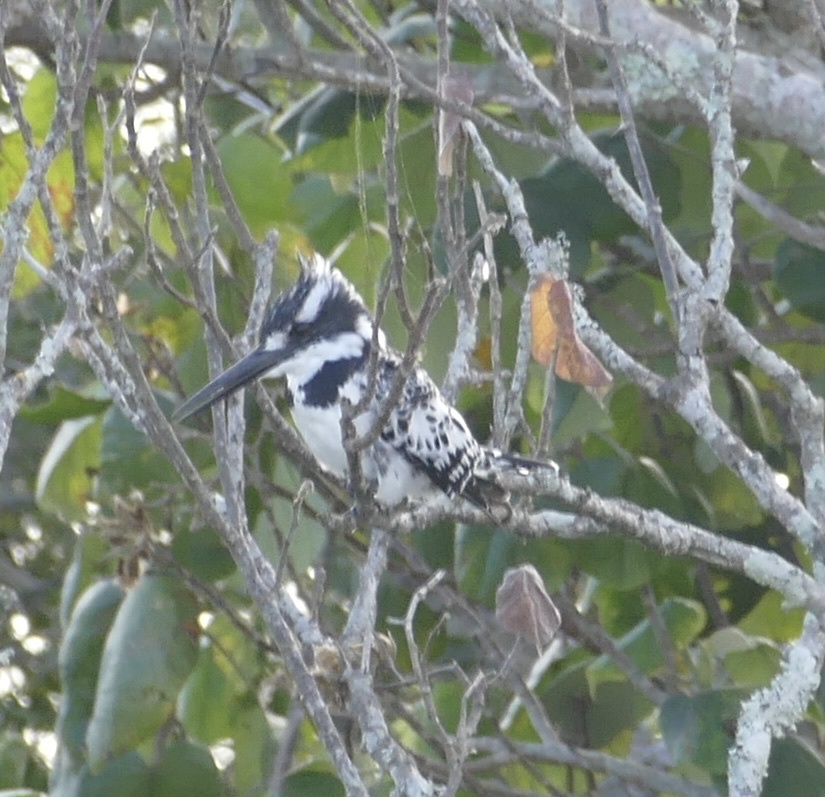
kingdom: Animalia
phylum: Chordata
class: Aves
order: Coraciiformes
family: Alcedinidae
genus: Ceryle
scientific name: Ceryle rudis
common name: Pied kingfisher
